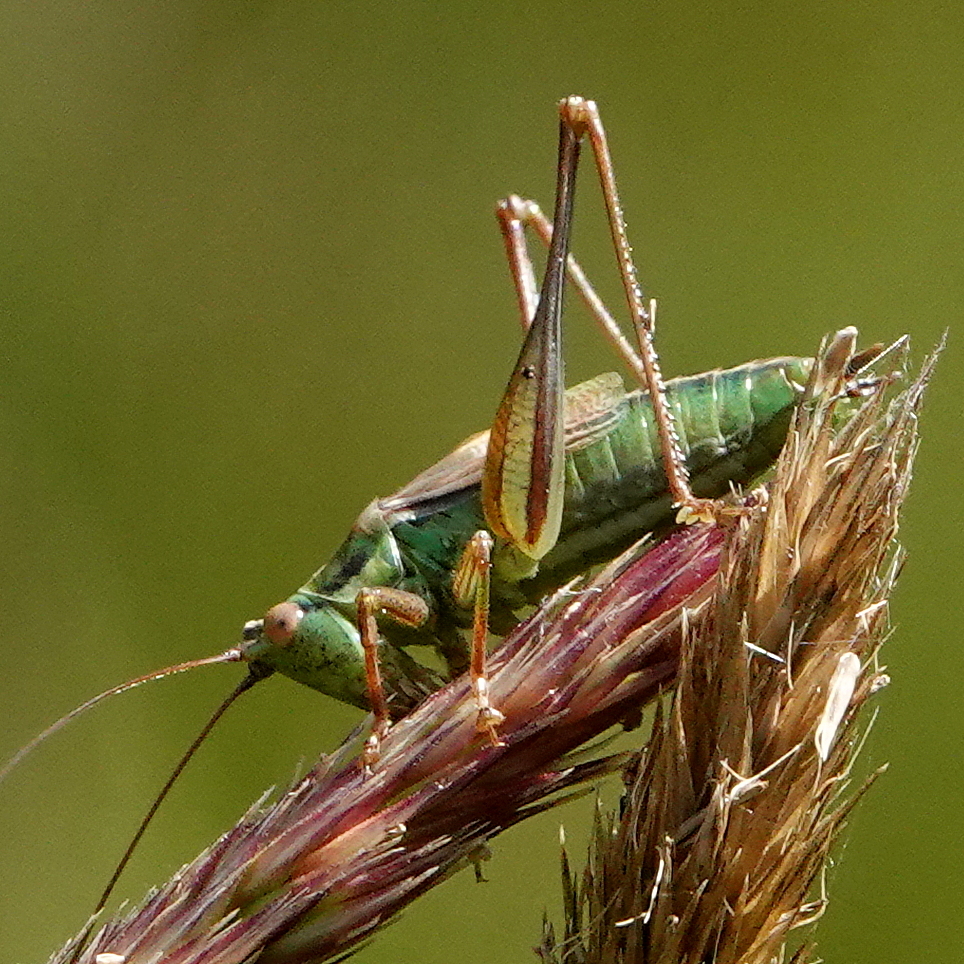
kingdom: Animalia
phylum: Arthropoda
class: Insecta
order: Orthoptera
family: Tettigoniidae
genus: Conocephalus
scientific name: Conocephalus bilineatus
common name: Small meadow katydid
